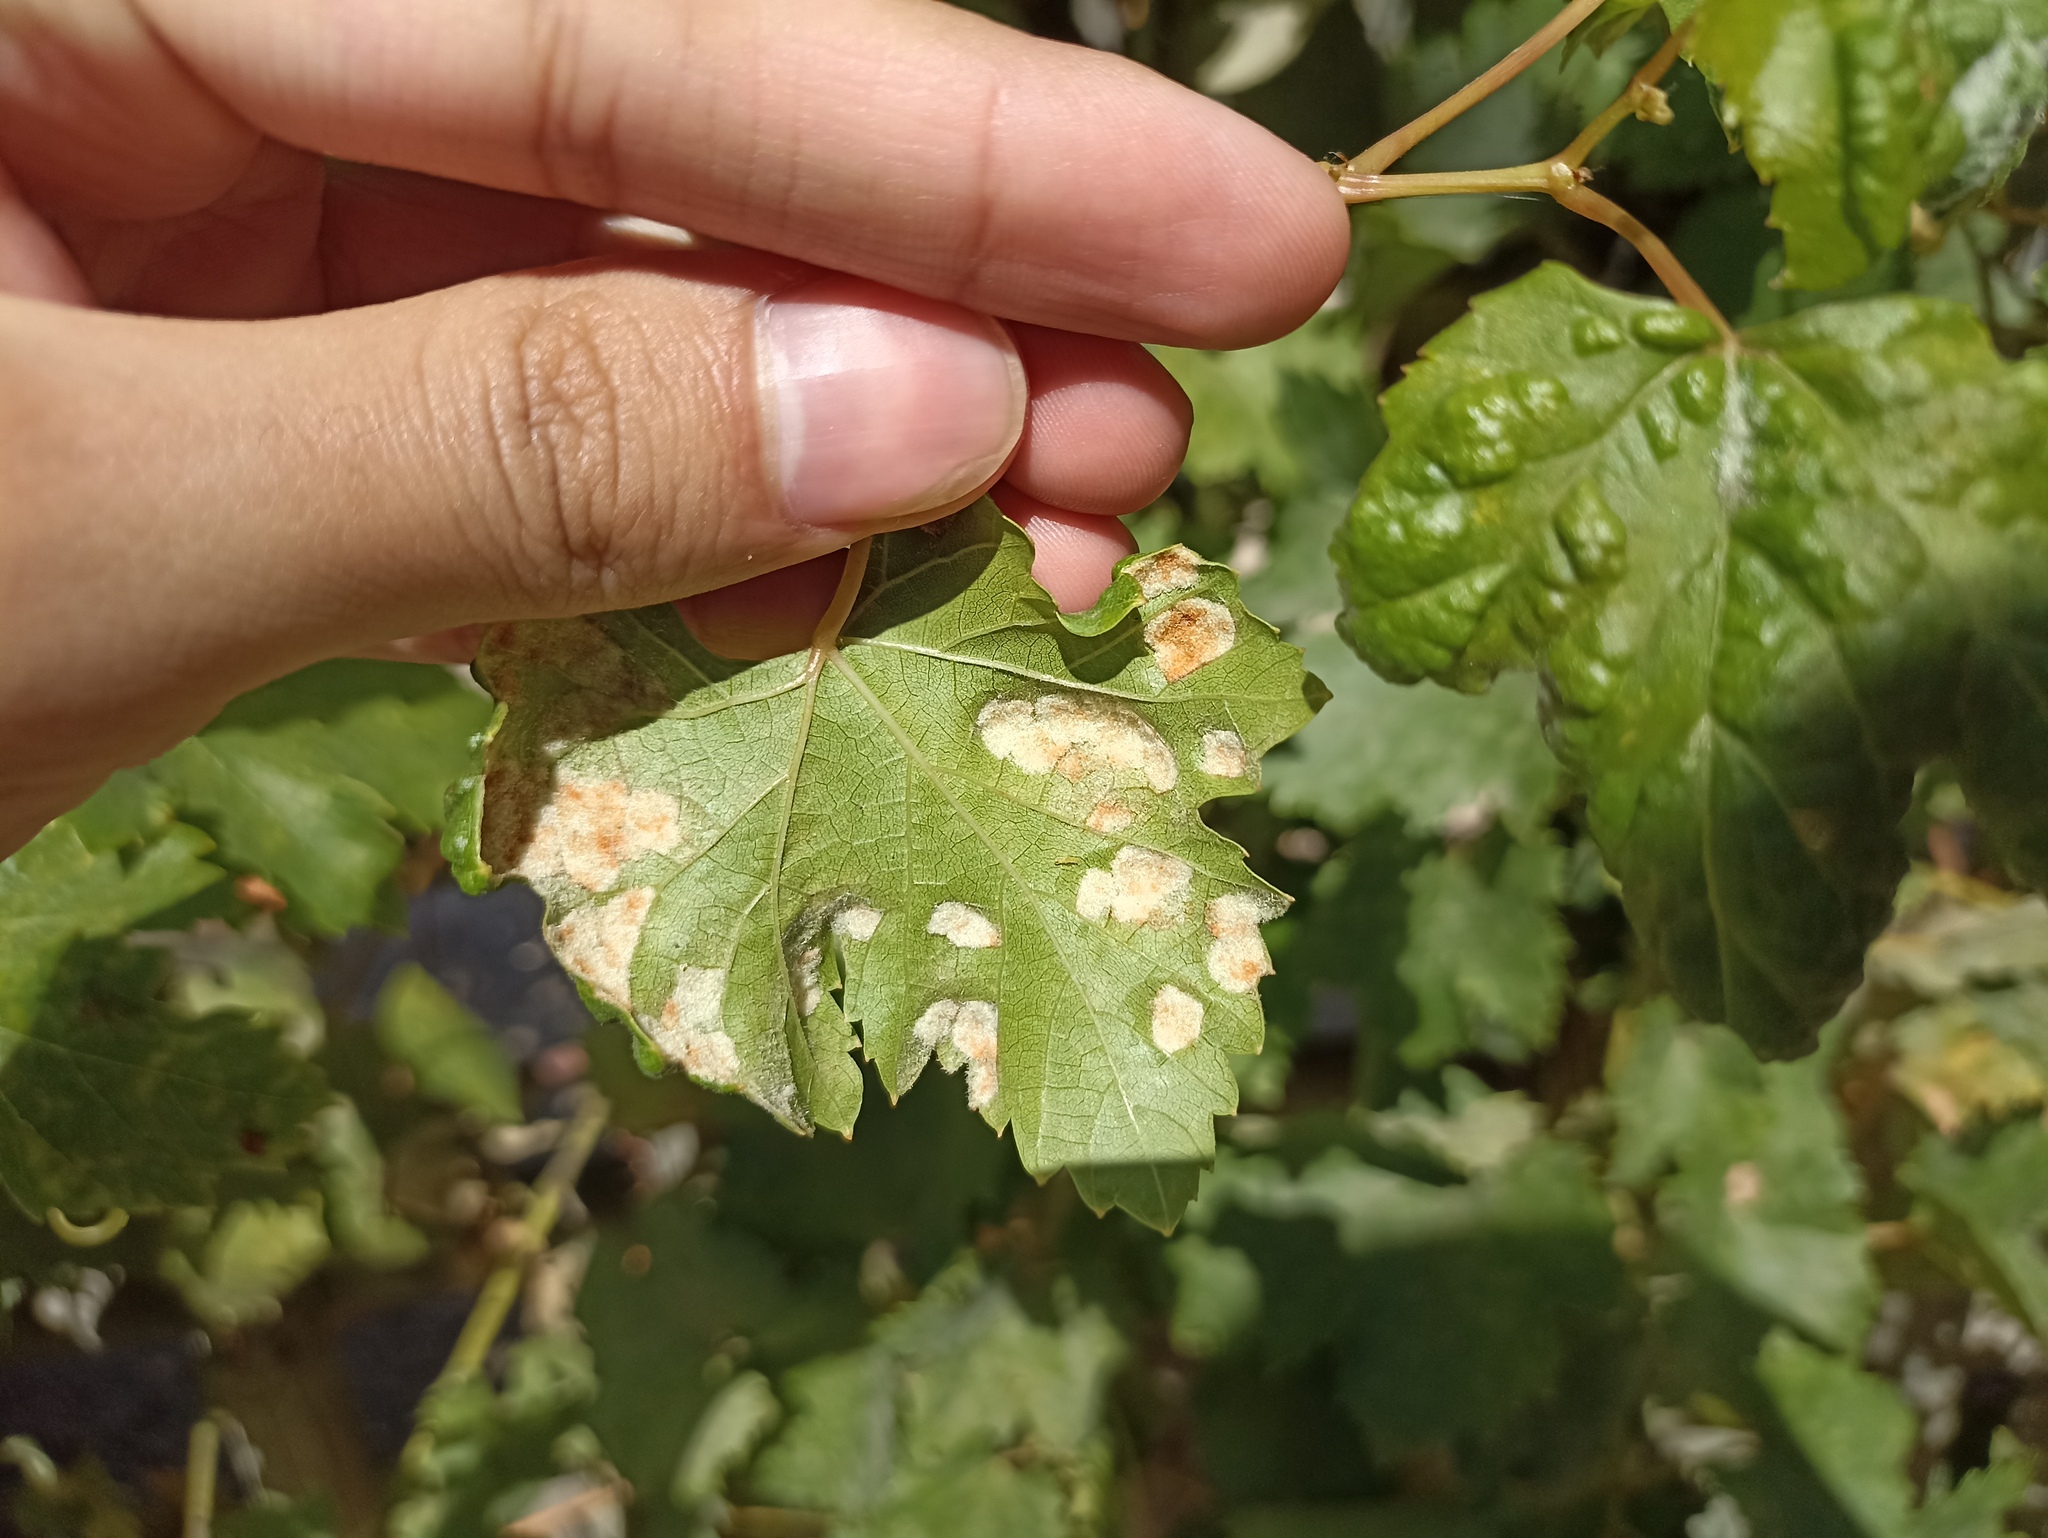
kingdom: Animalia
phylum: Arthropoda
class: Arachnida
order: Trombidiformes
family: Eriophyidae
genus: Colomerus
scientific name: Colomerus vitis
